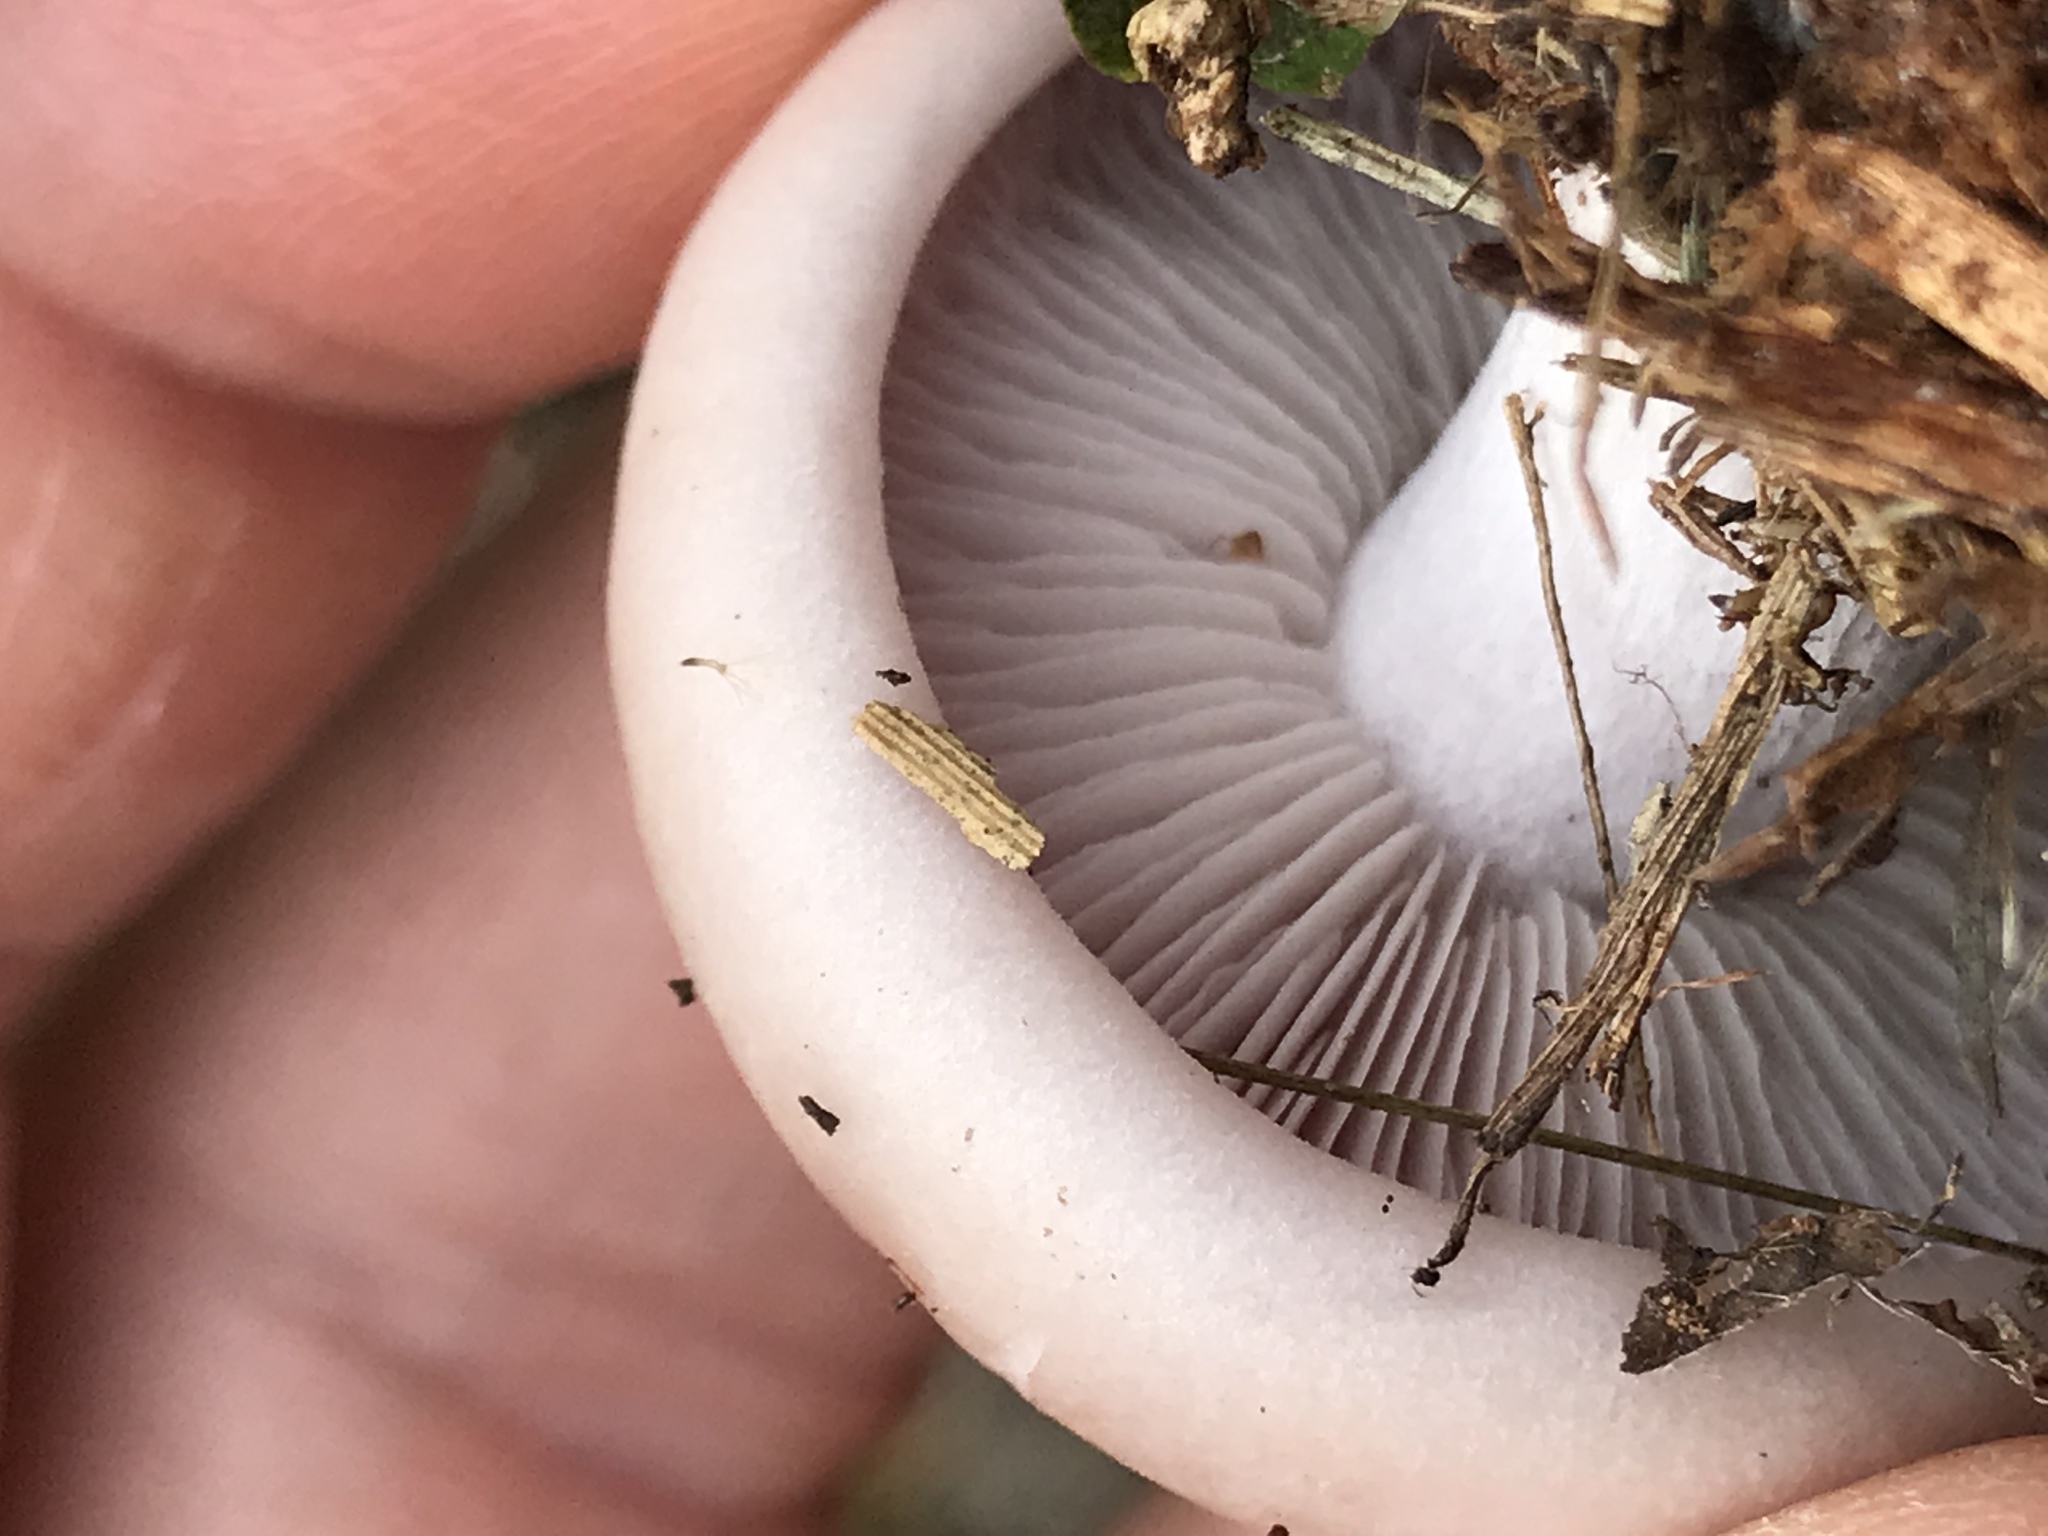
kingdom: Fungi
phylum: Basidiomycota
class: Agaricomycetes
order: Agaricales
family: Tricholomataceae
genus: Collybia
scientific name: Collybia
